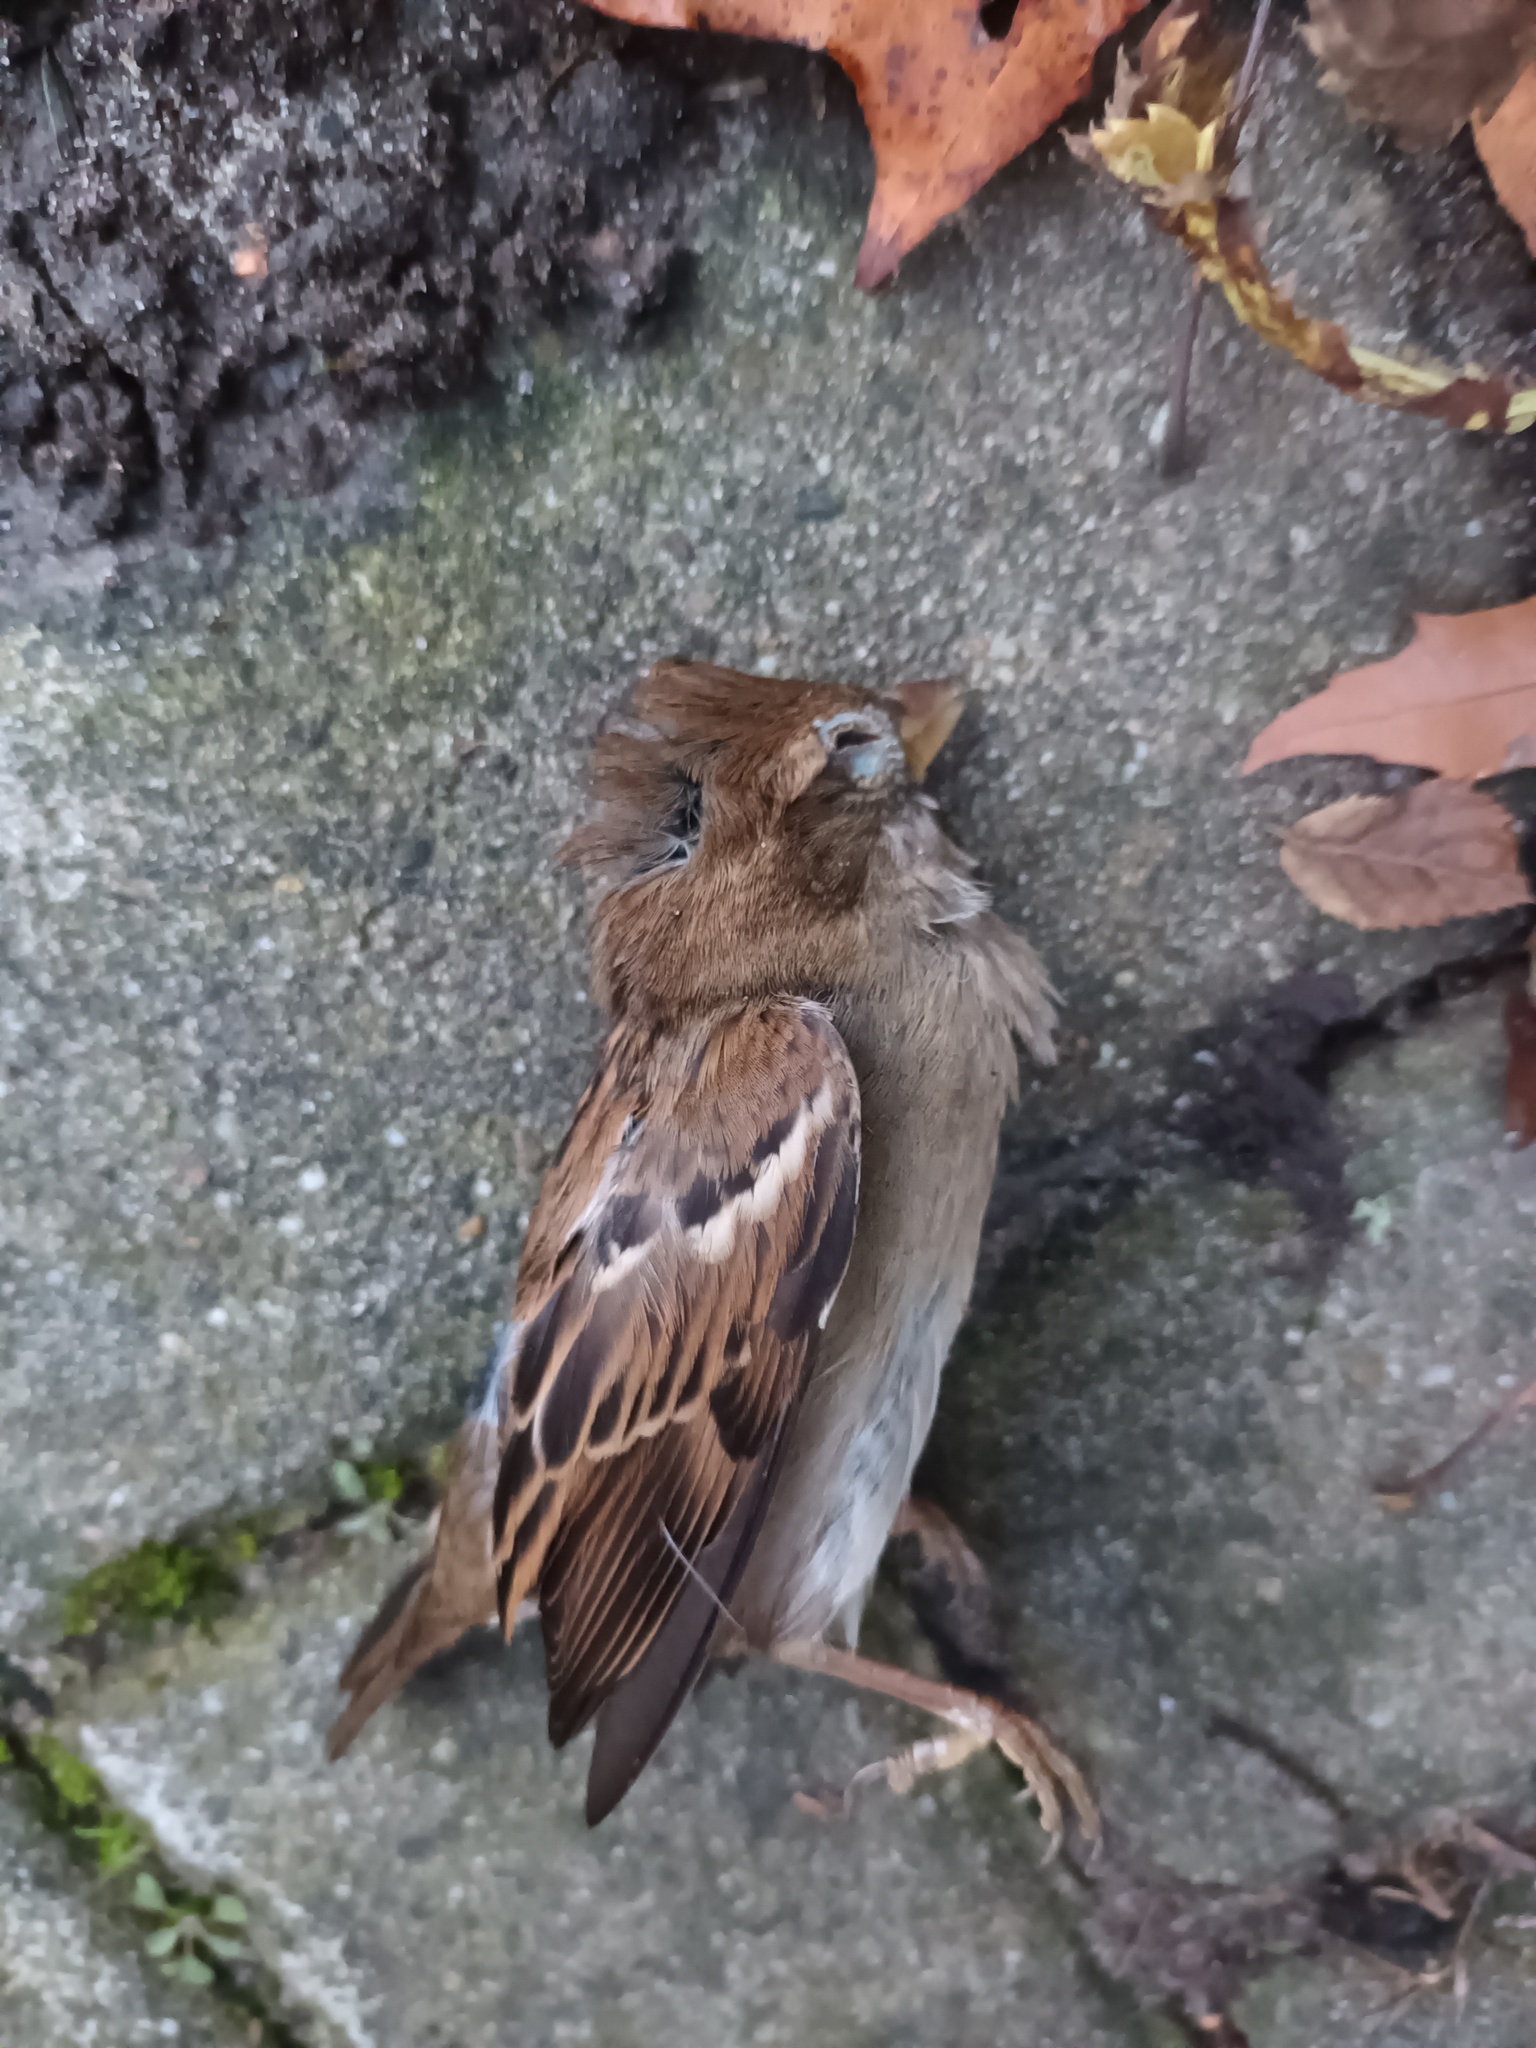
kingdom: Animalia
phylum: Chordata
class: Aves
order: Passeriformes
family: Passeridae
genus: Passer
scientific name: Passer domesticus
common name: House sparrow
